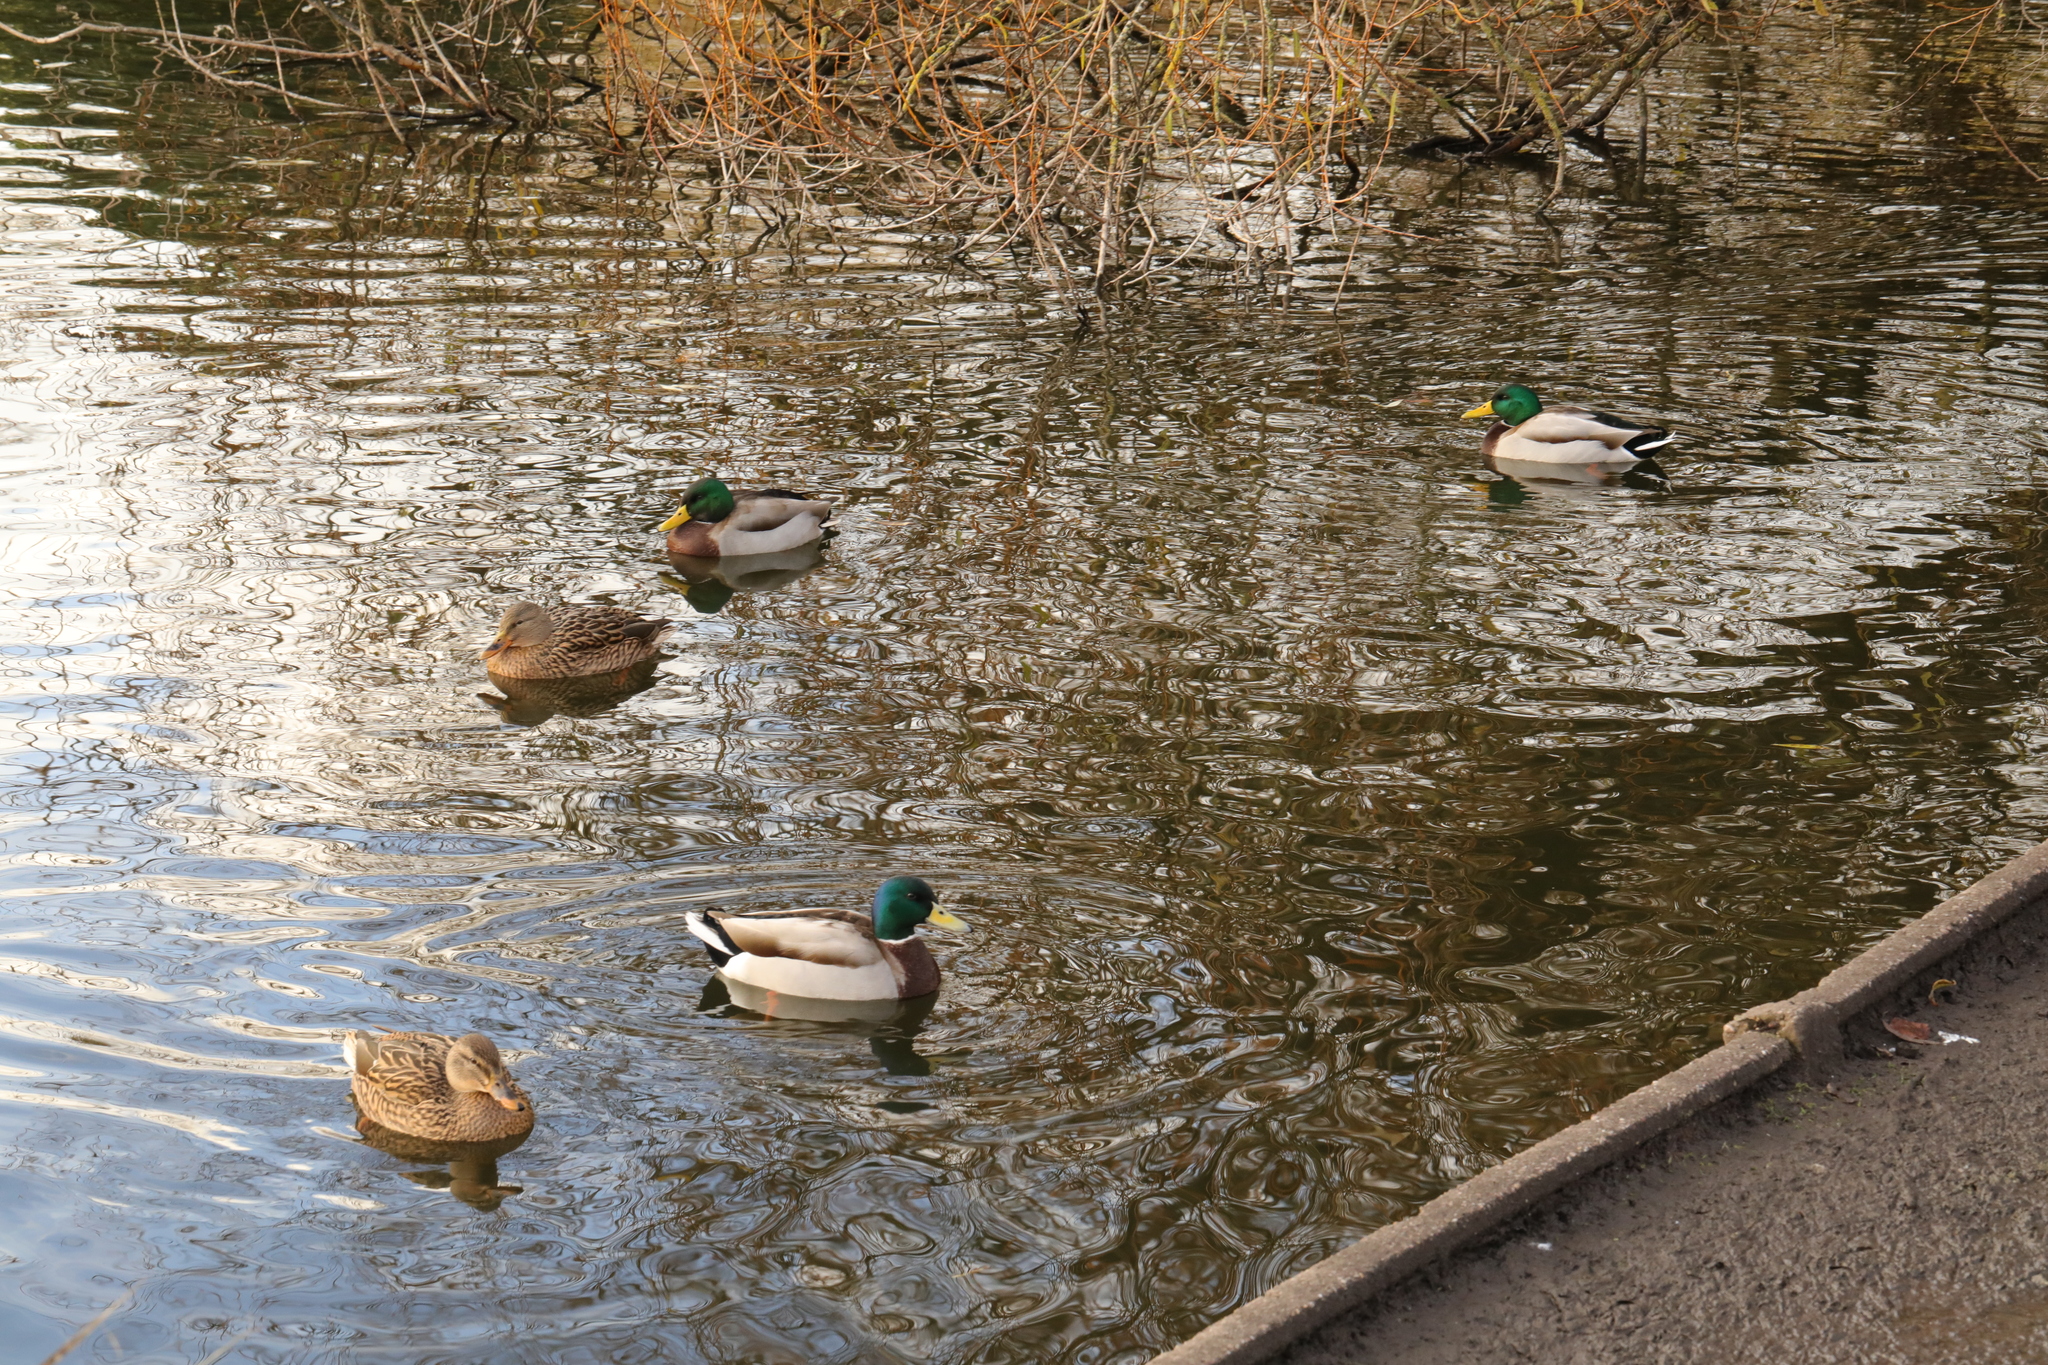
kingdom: Animalia
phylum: Chordata
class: Aves
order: Anseriformes
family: Anatidae
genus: Anas
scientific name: Anas platyrhynchos
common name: Mallard
